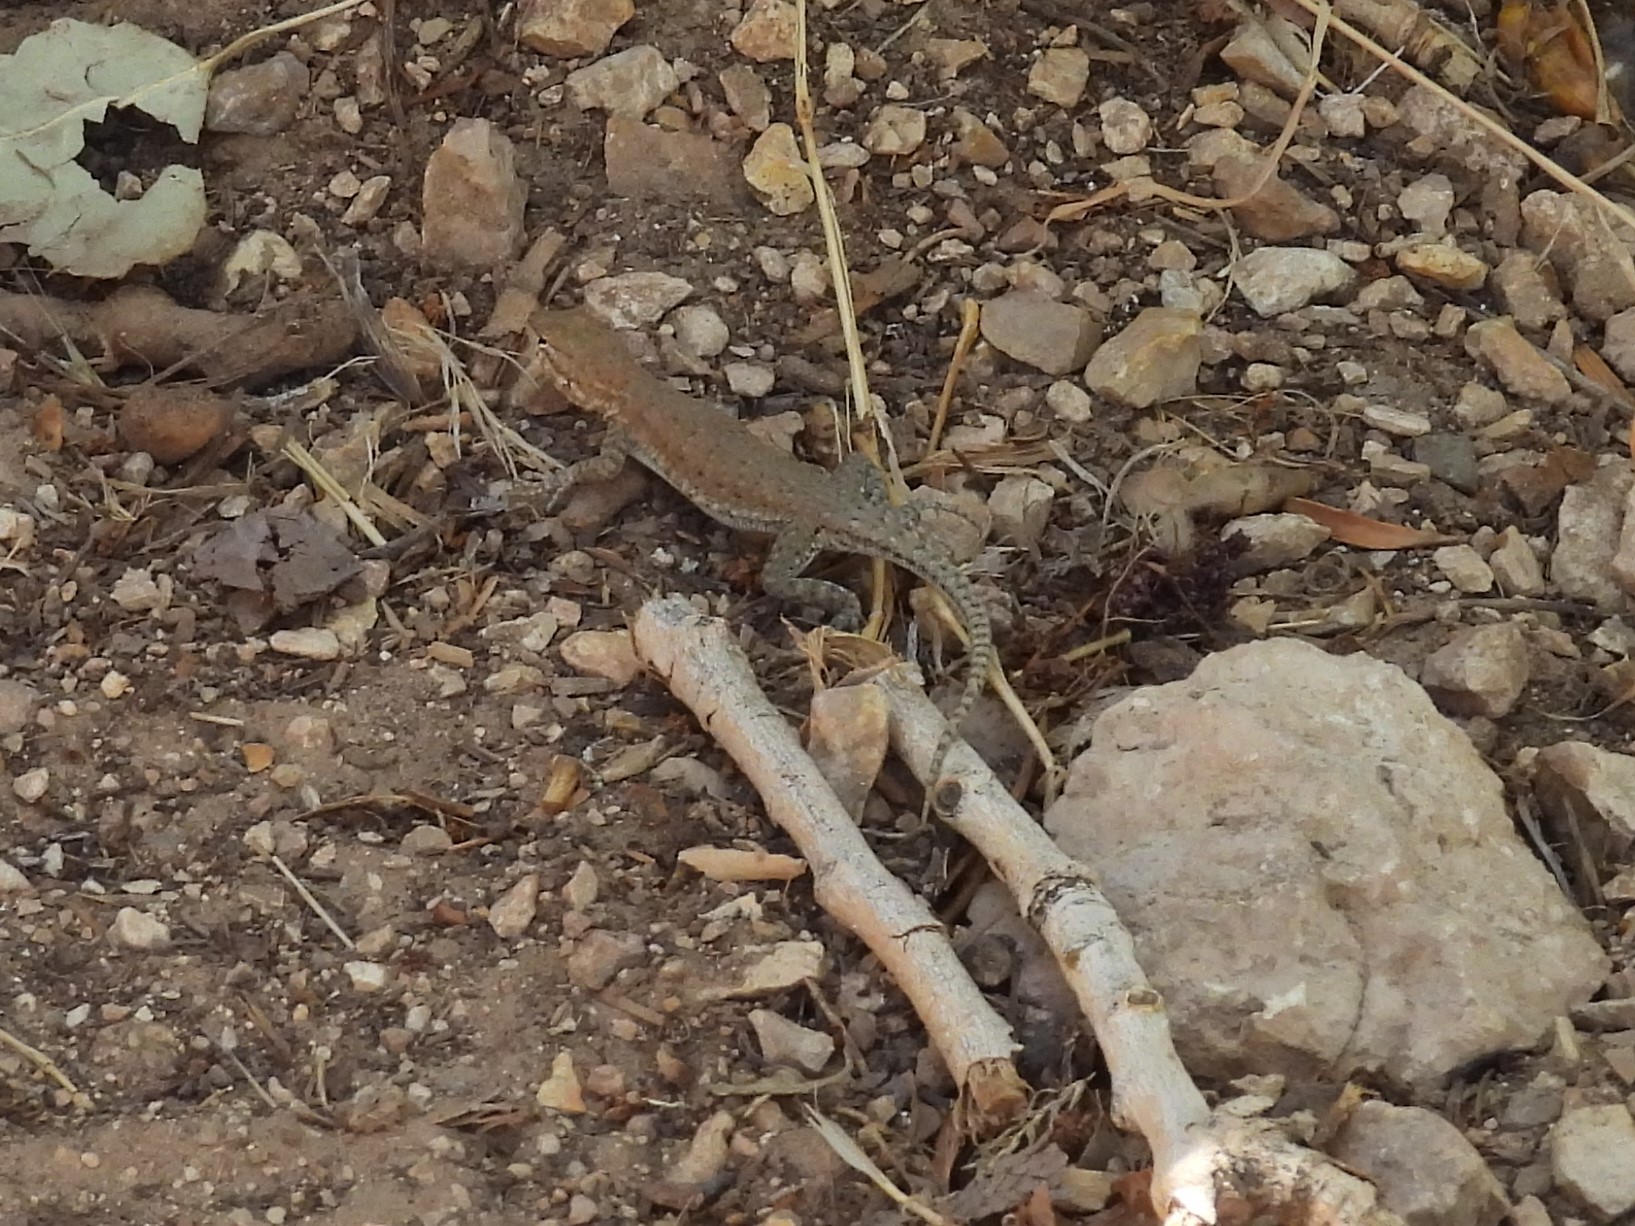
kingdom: Animalia
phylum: Chordata
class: Squamata
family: Phrynosomatidae
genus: Uta
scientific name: Uta stansburiana
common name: Side-blotched lizard
